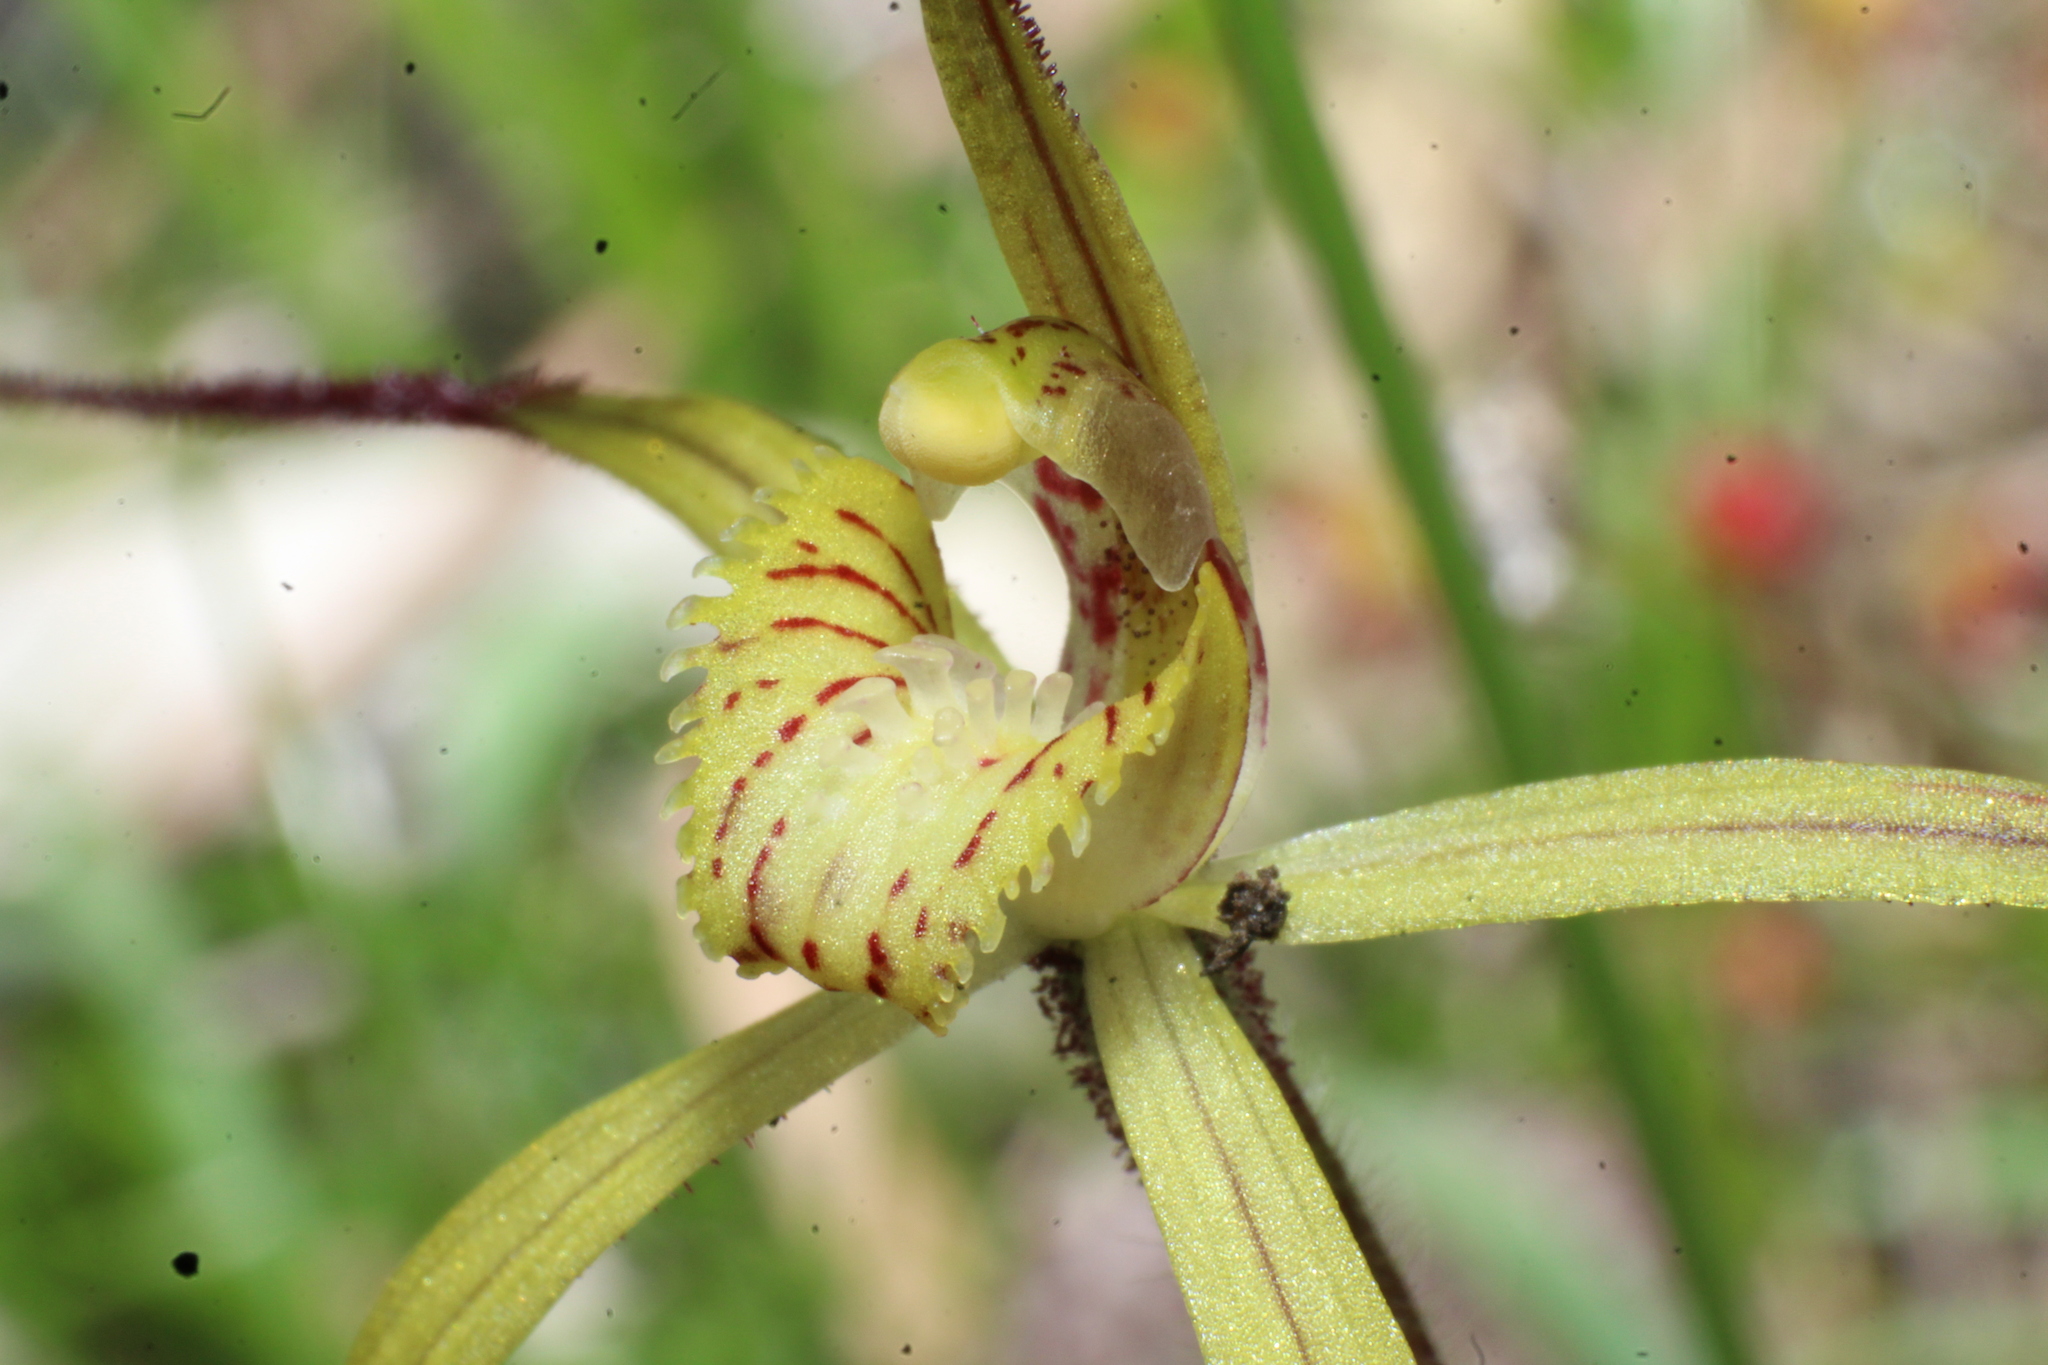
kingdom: Plantae
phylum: Tracheophyta
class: Liliopsida
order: Asparagales
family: Orchidaceae
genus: Caladenia
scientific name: Caladenia xantha
